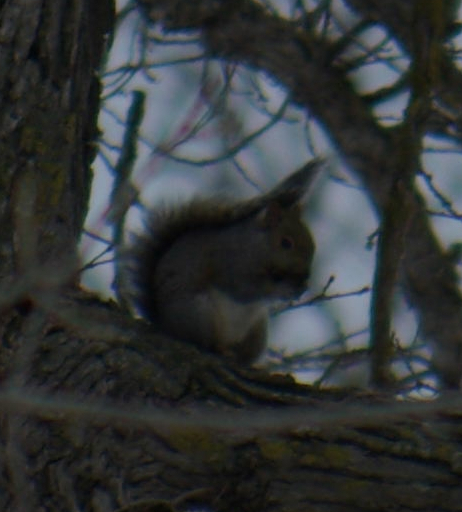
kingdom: Animalia
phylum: Chordata
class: Mammalia
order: Rodentia
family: Sciuridae
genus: Sciurus
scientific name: Sciurus carolinensis
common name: Eastern gray squirrel
